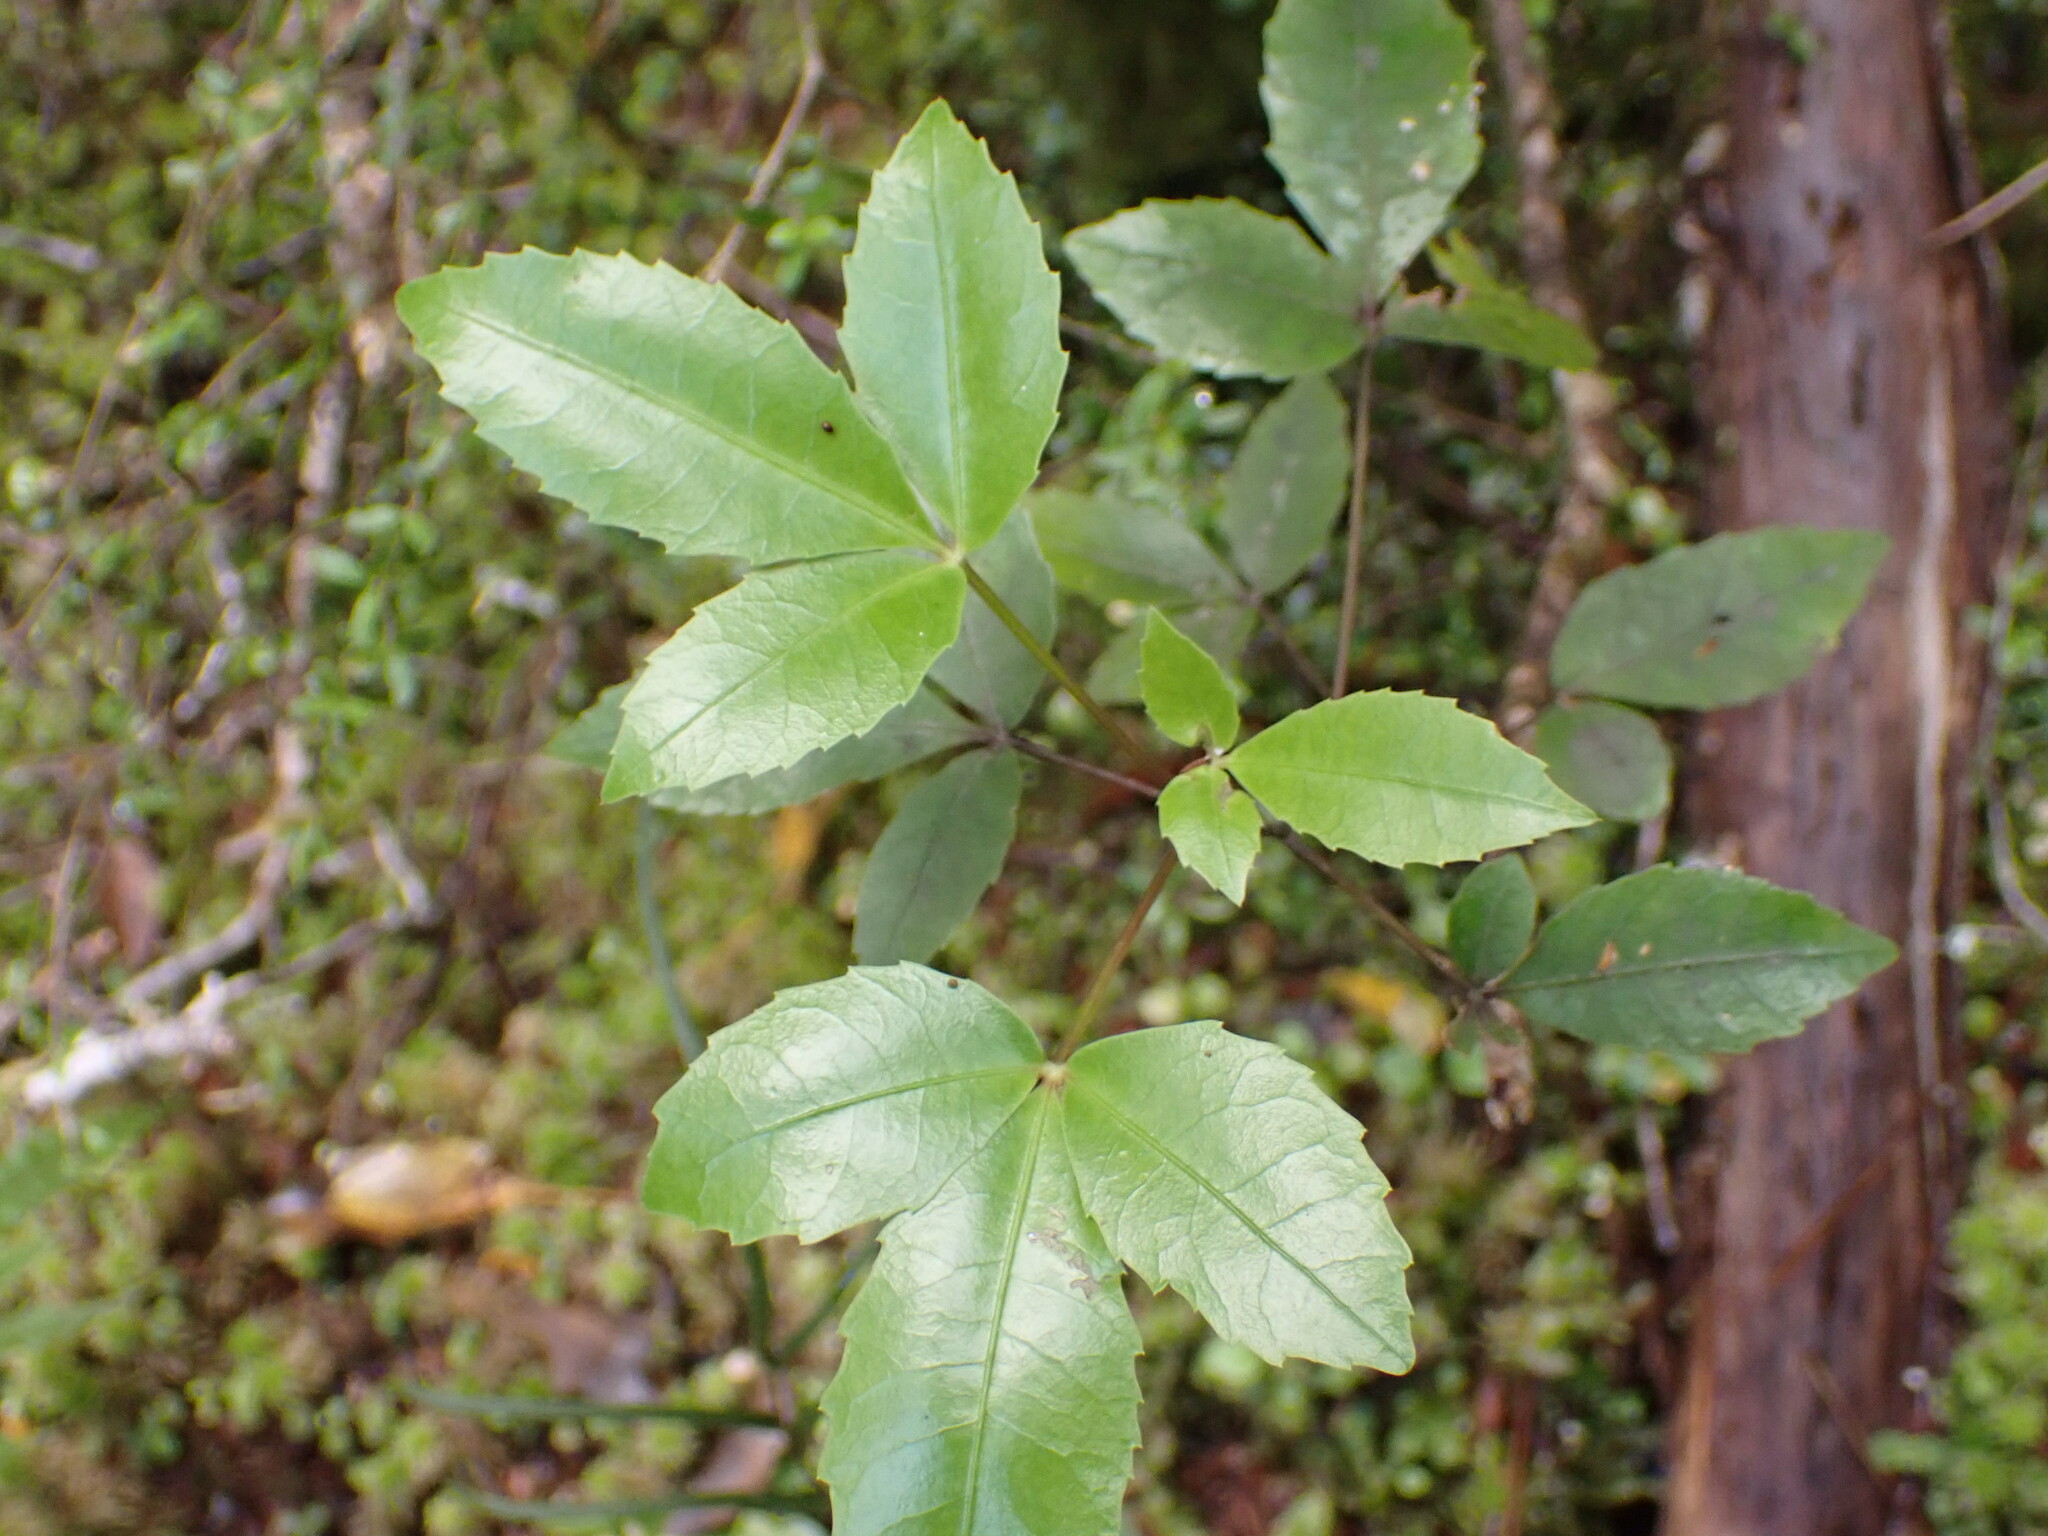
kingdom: Plantae
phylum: Tracheophyta
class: Magnoliopsida
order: Apiales
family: Araliaceae
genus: Raukaua
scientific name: Raukaua simplex
